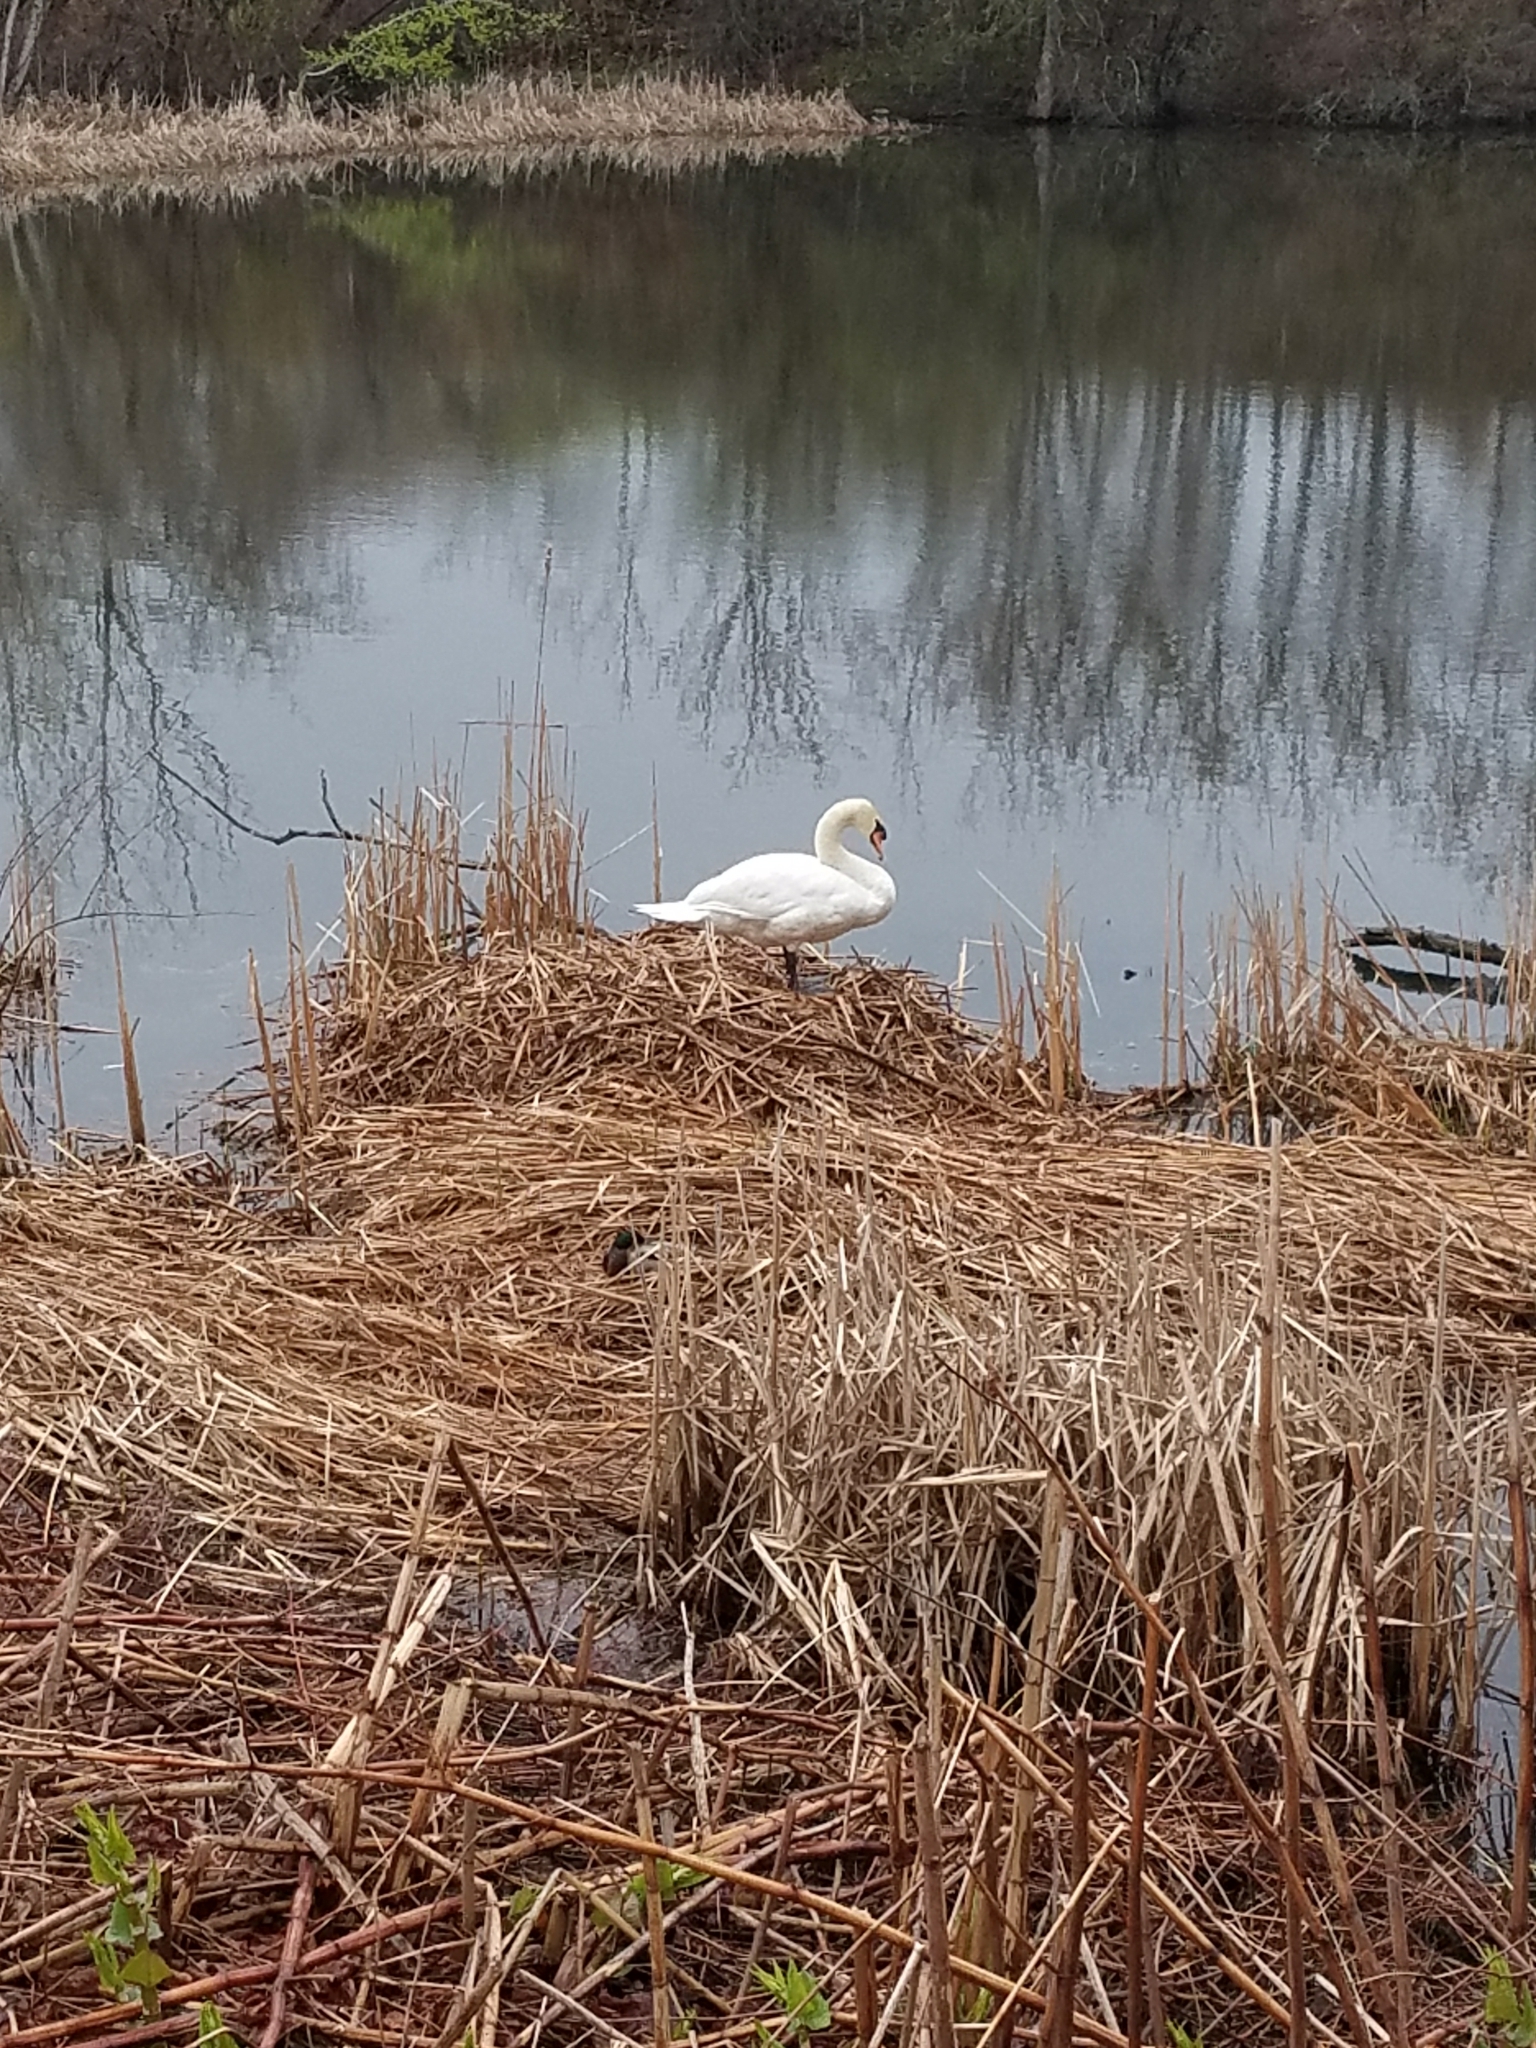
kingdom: Animalia
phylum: Chordata
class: Aves
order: Anseriformes
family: Anatidae
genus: Cygnus
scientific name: Cygnus olor
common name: Mute swan
